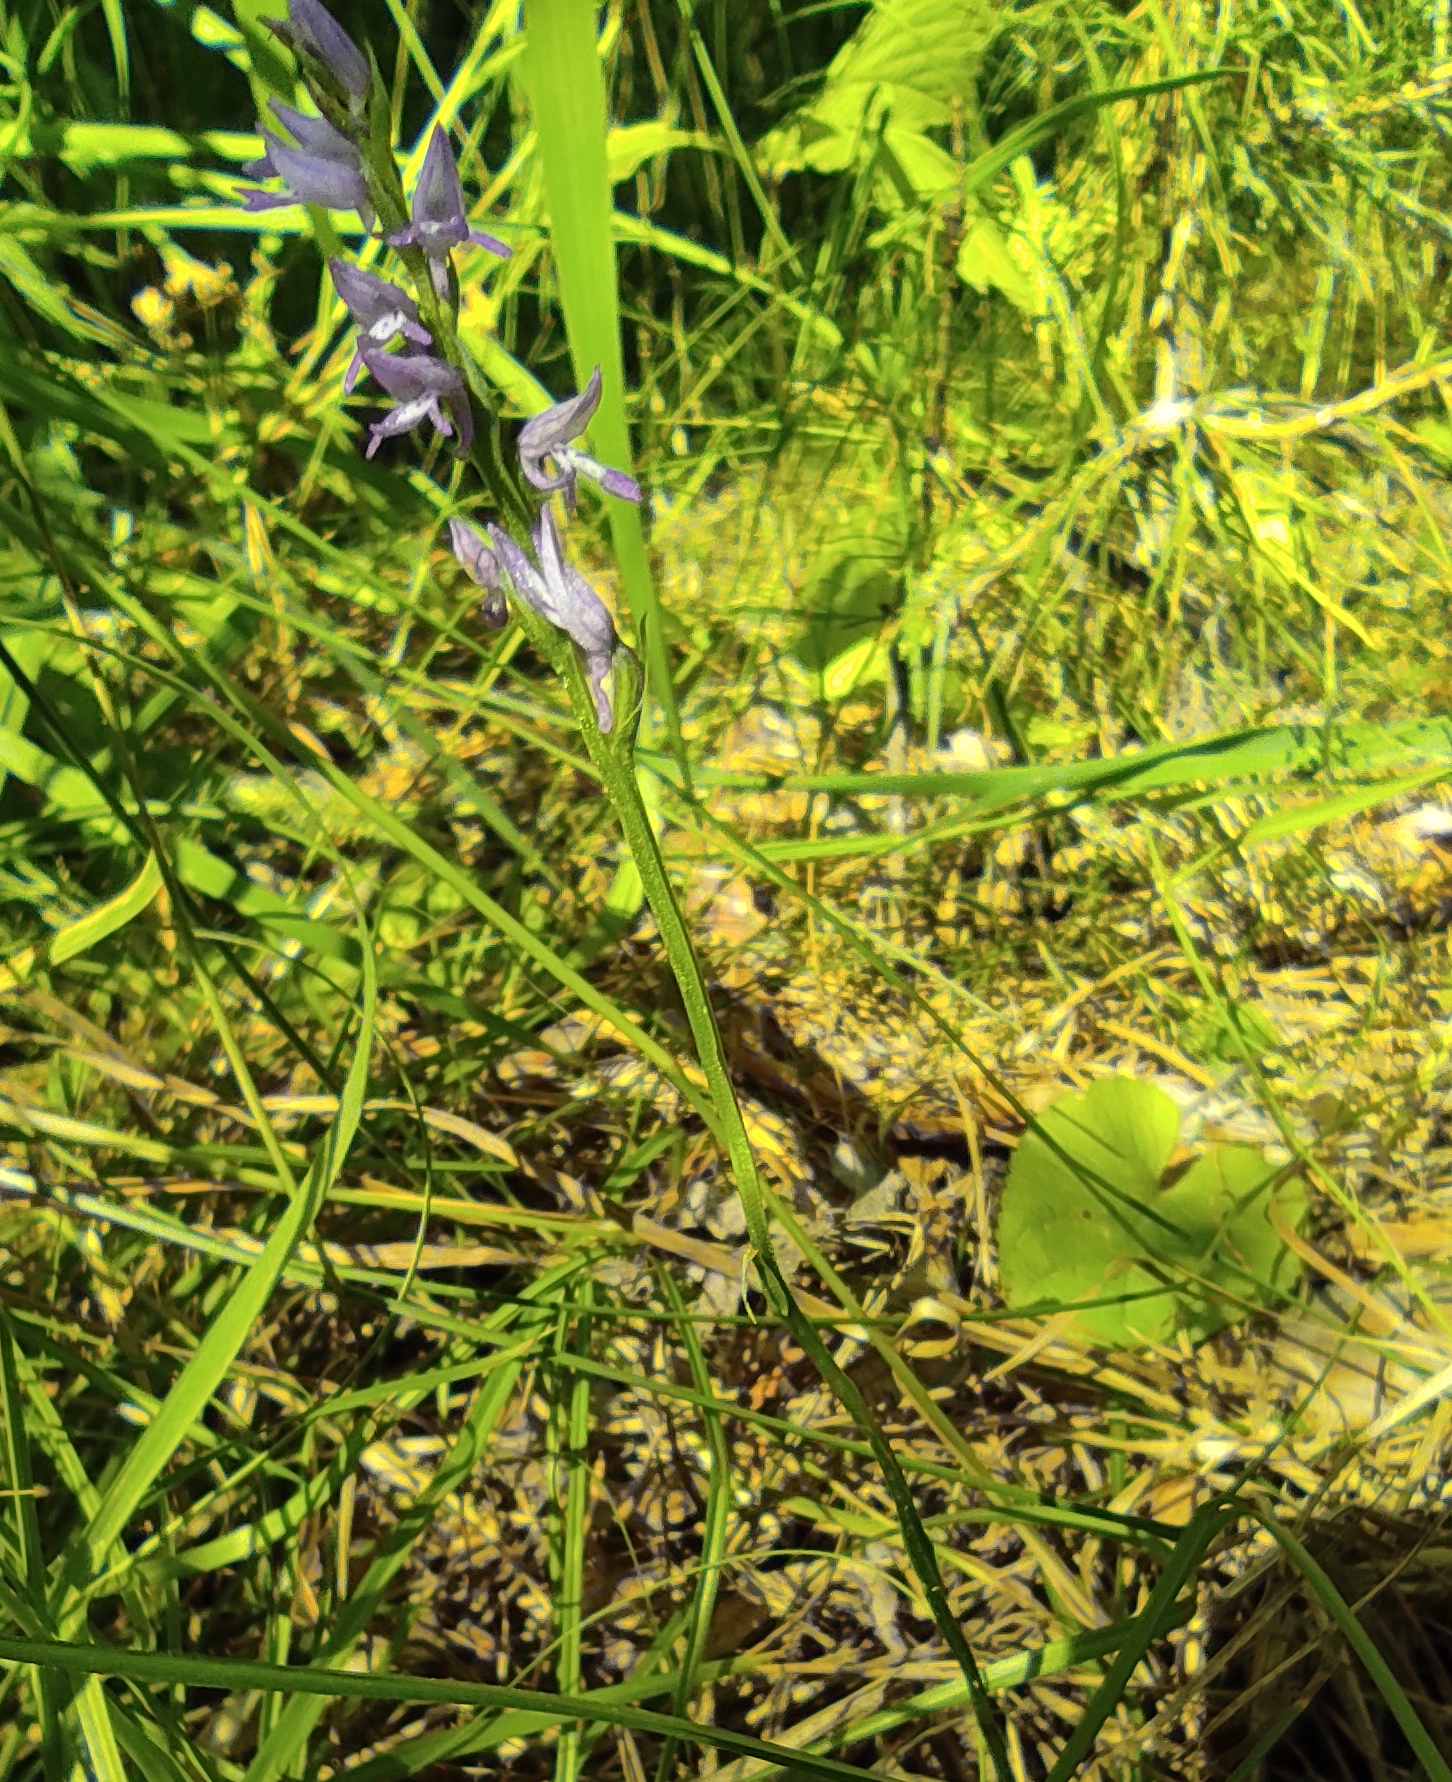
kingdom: Plantae
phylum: Tracheophyta
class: Liliopsida
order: Asparagales
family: Orchidaceae
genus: Hemipilia
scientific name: Hemipilia cucullata
